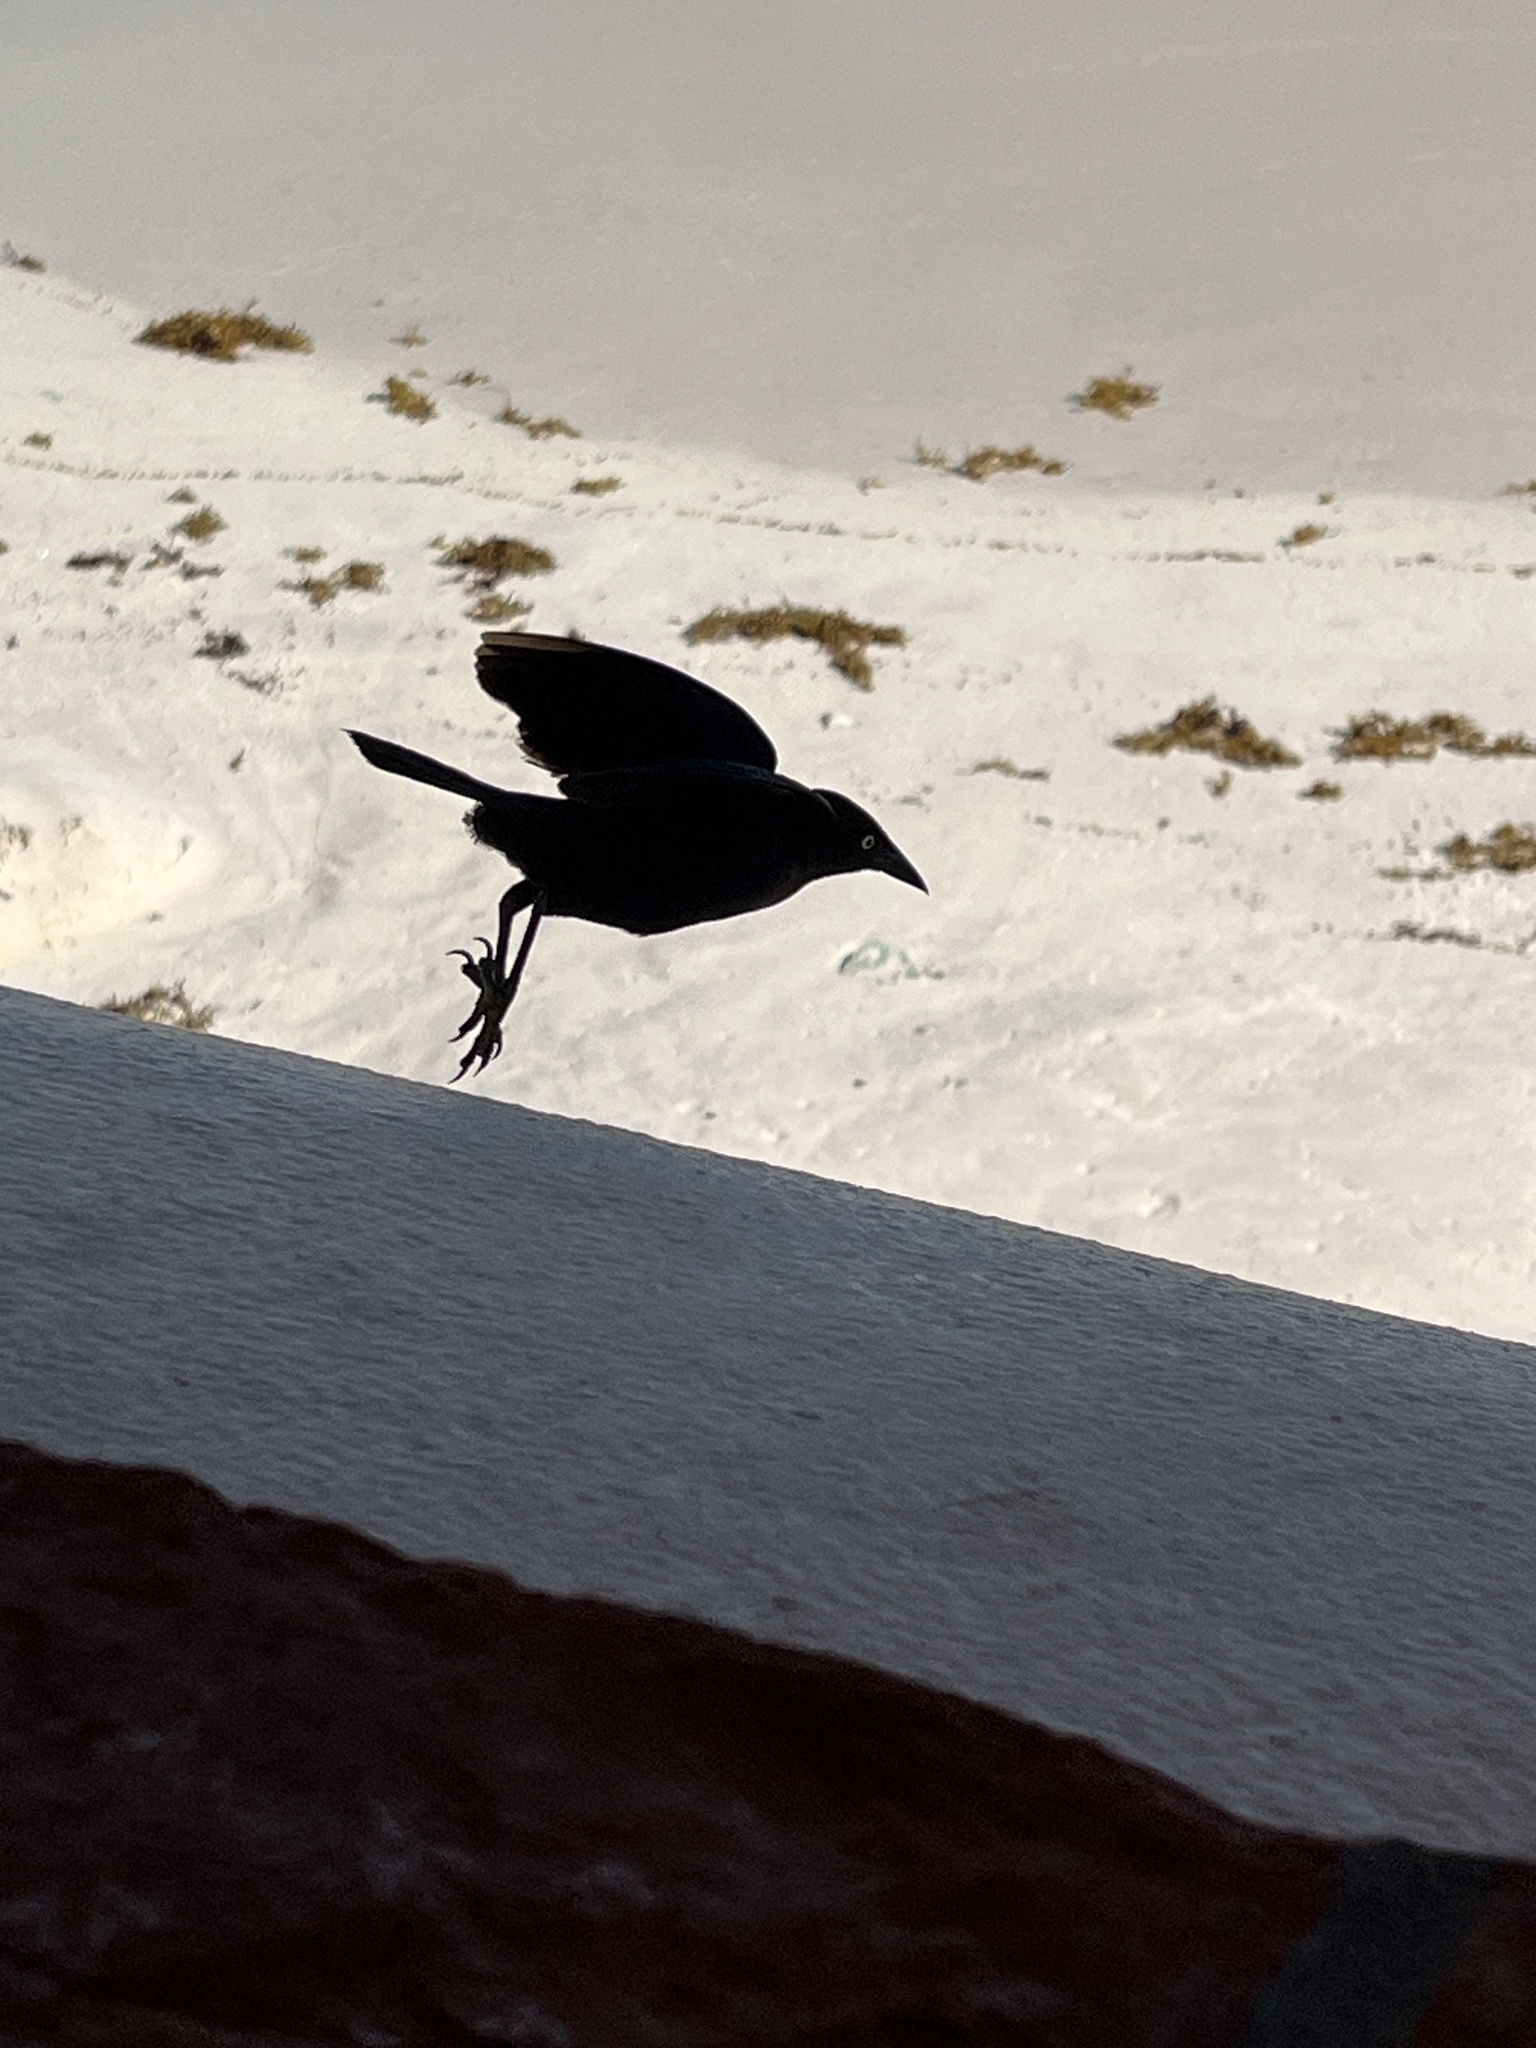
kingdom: Animalia
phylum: Chordata
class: Aves
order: Passeriformes
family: Icteridae
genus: Quiscalus
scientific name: Quiscalus lugubris
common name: Carib grackle
